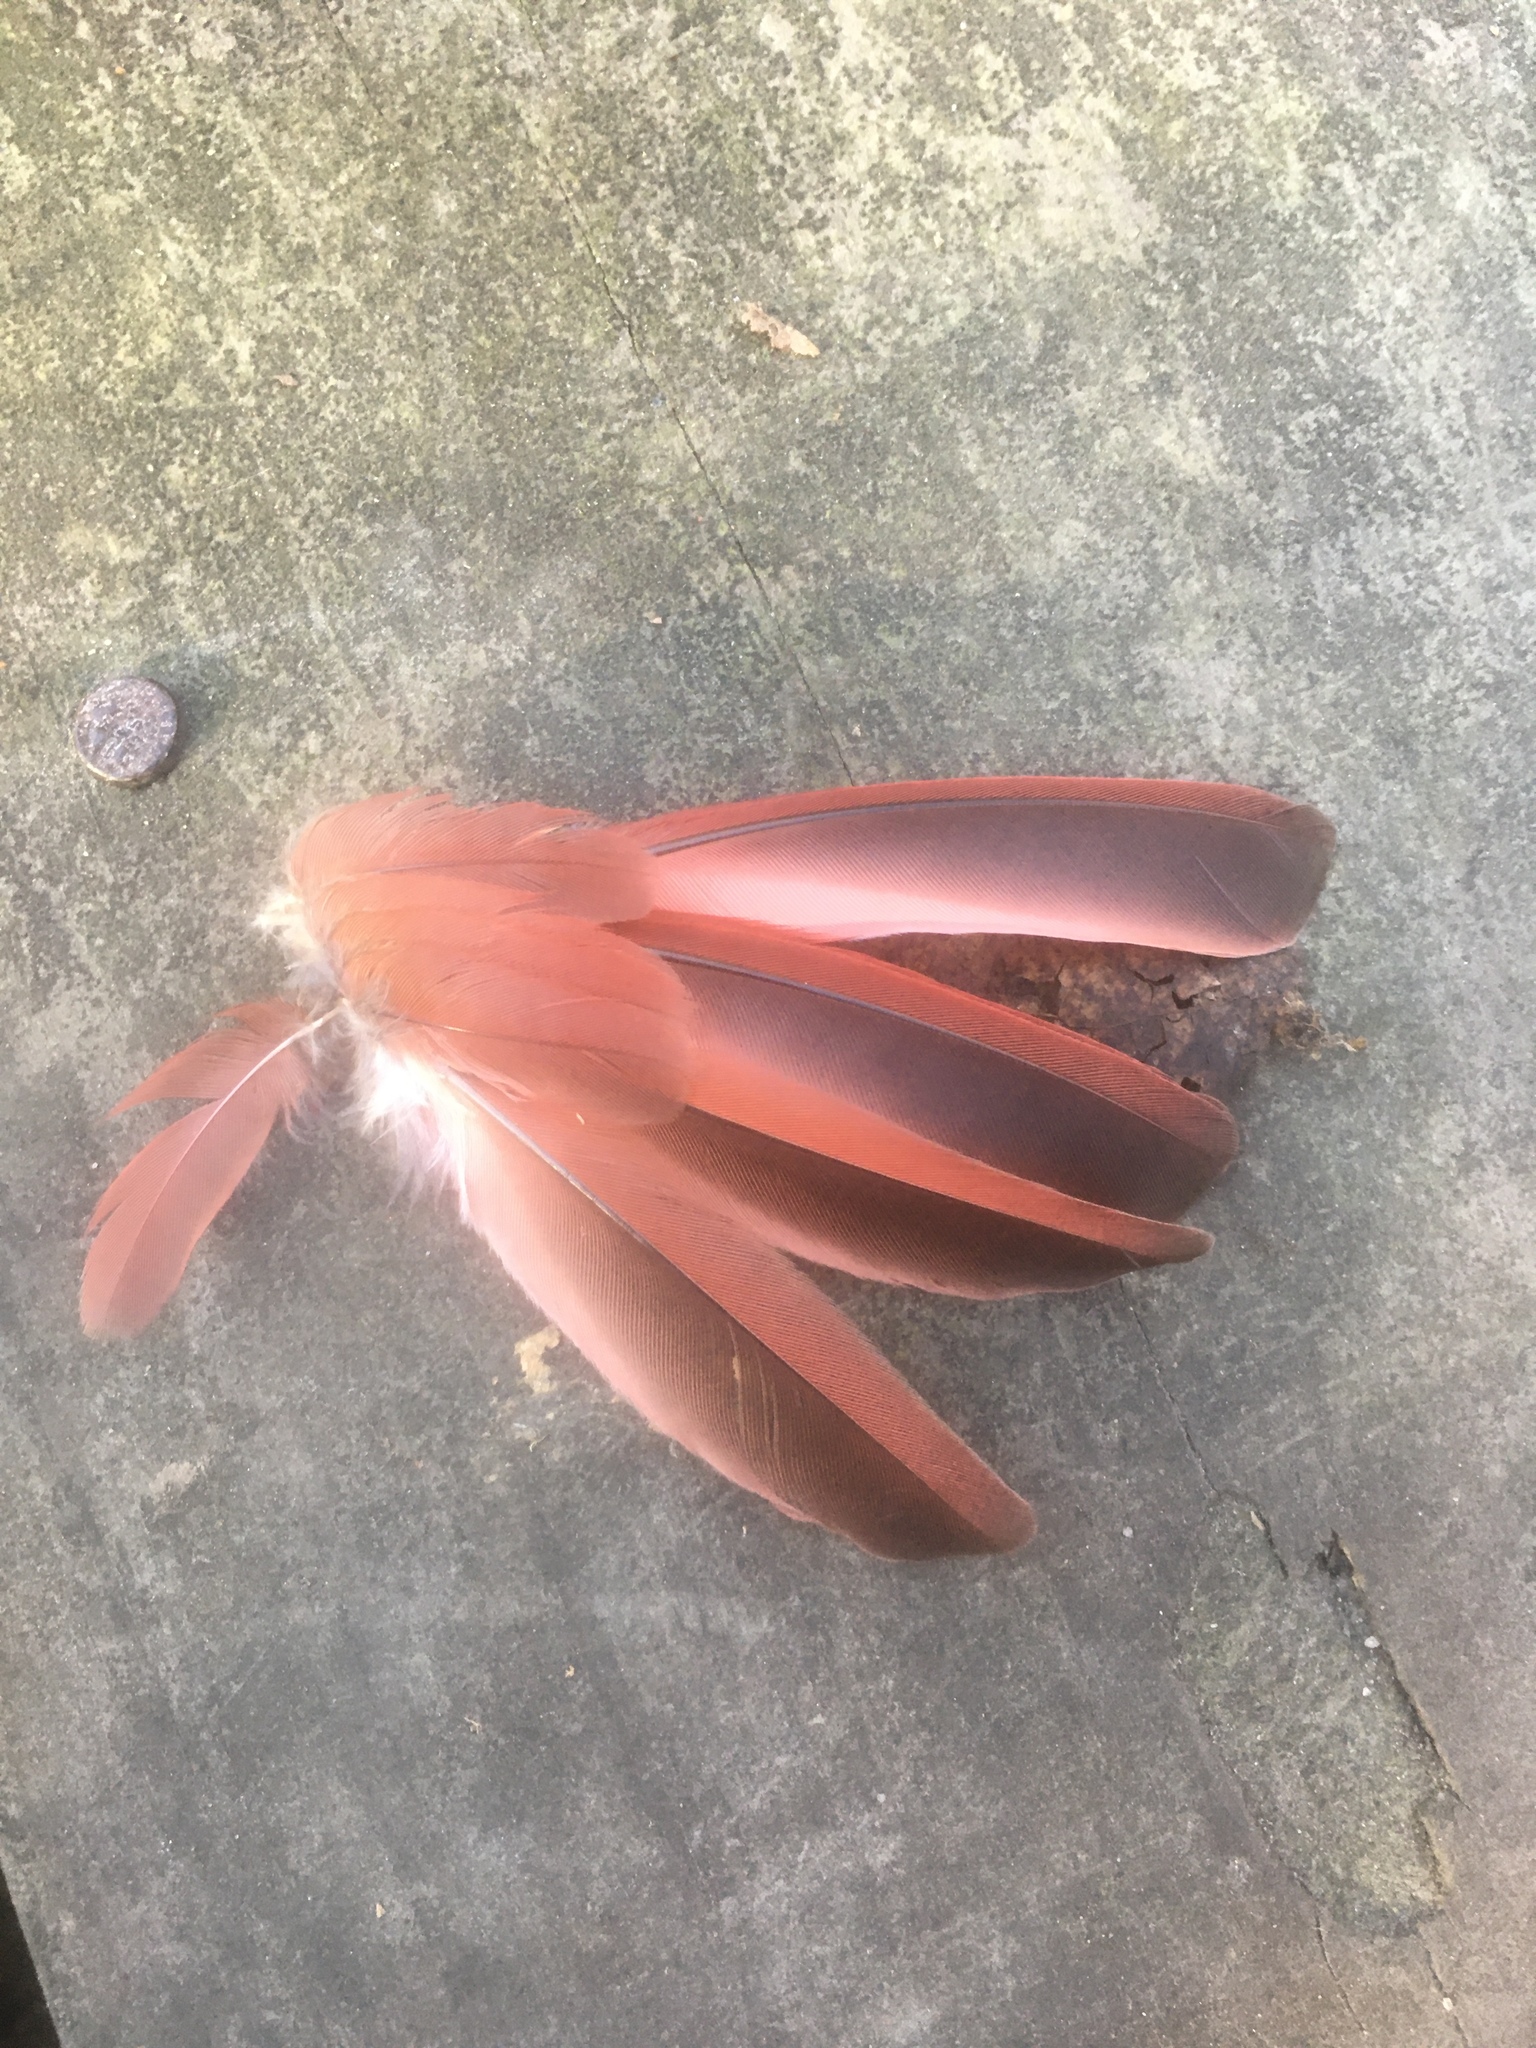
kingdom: Animalia
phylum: Chordata
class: Aves
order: Passeriformes
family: Cardinalidae
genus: Cardinalis
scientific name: Cardinalis cardinalis
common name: Northern cardinal
